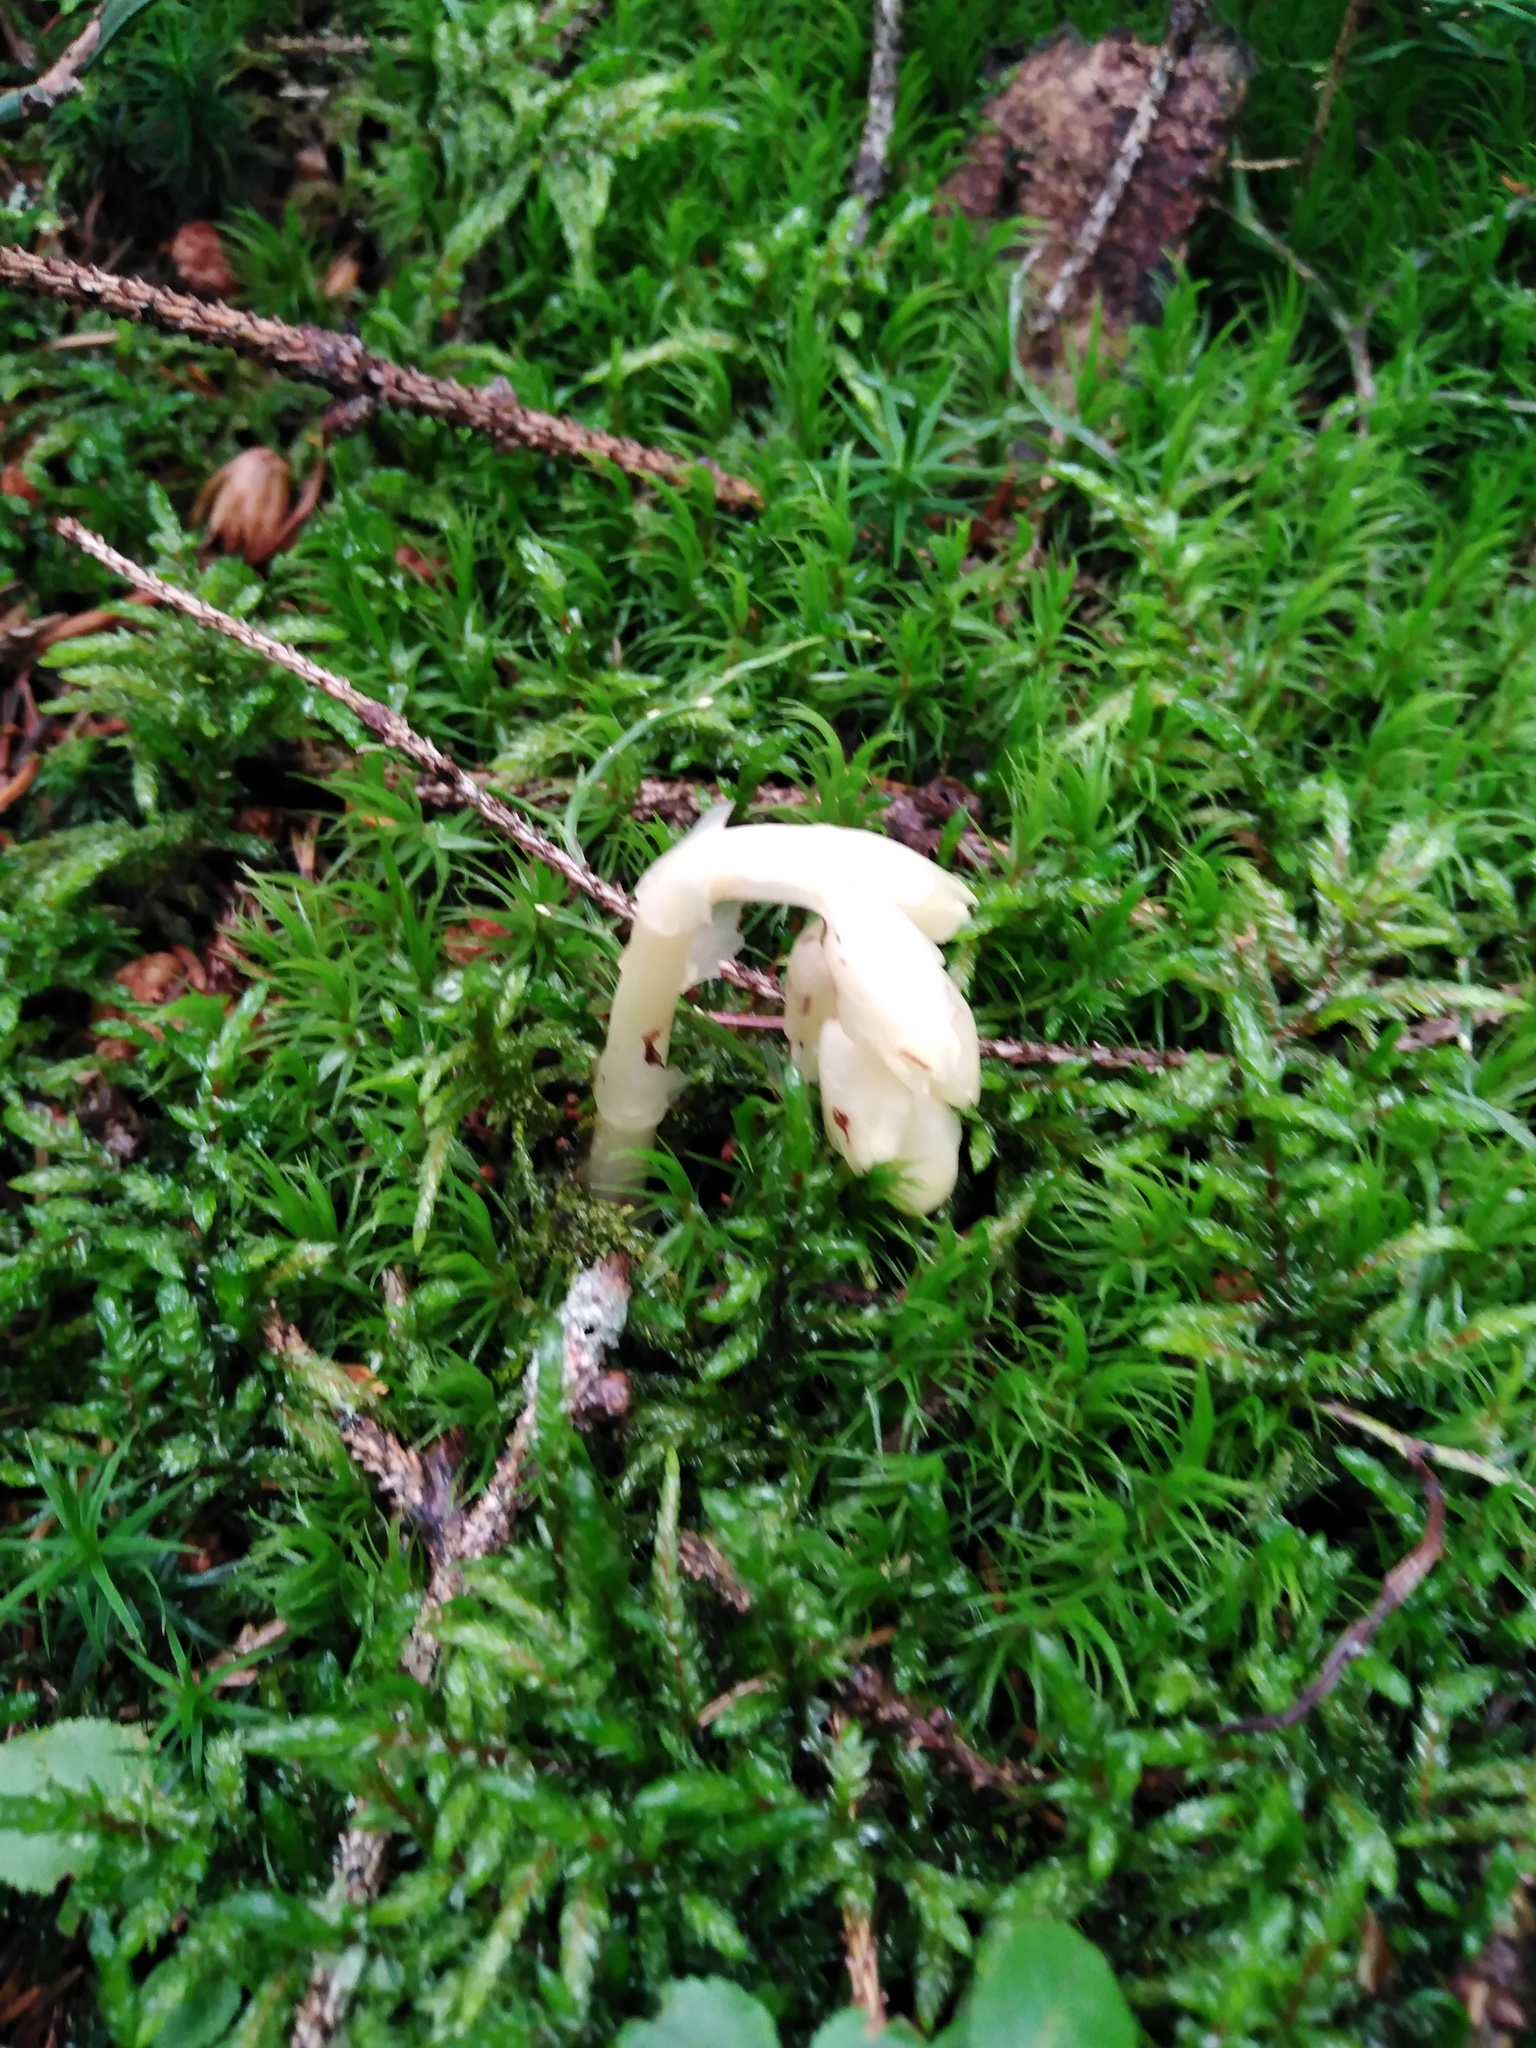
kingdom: Plantae
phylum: Tracheophyta
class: Magnoliopsida
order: Ericales
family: Ericaceae
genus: Hypopitys
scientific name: Hypopitys monotropa
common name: Yellow bird's-nest
